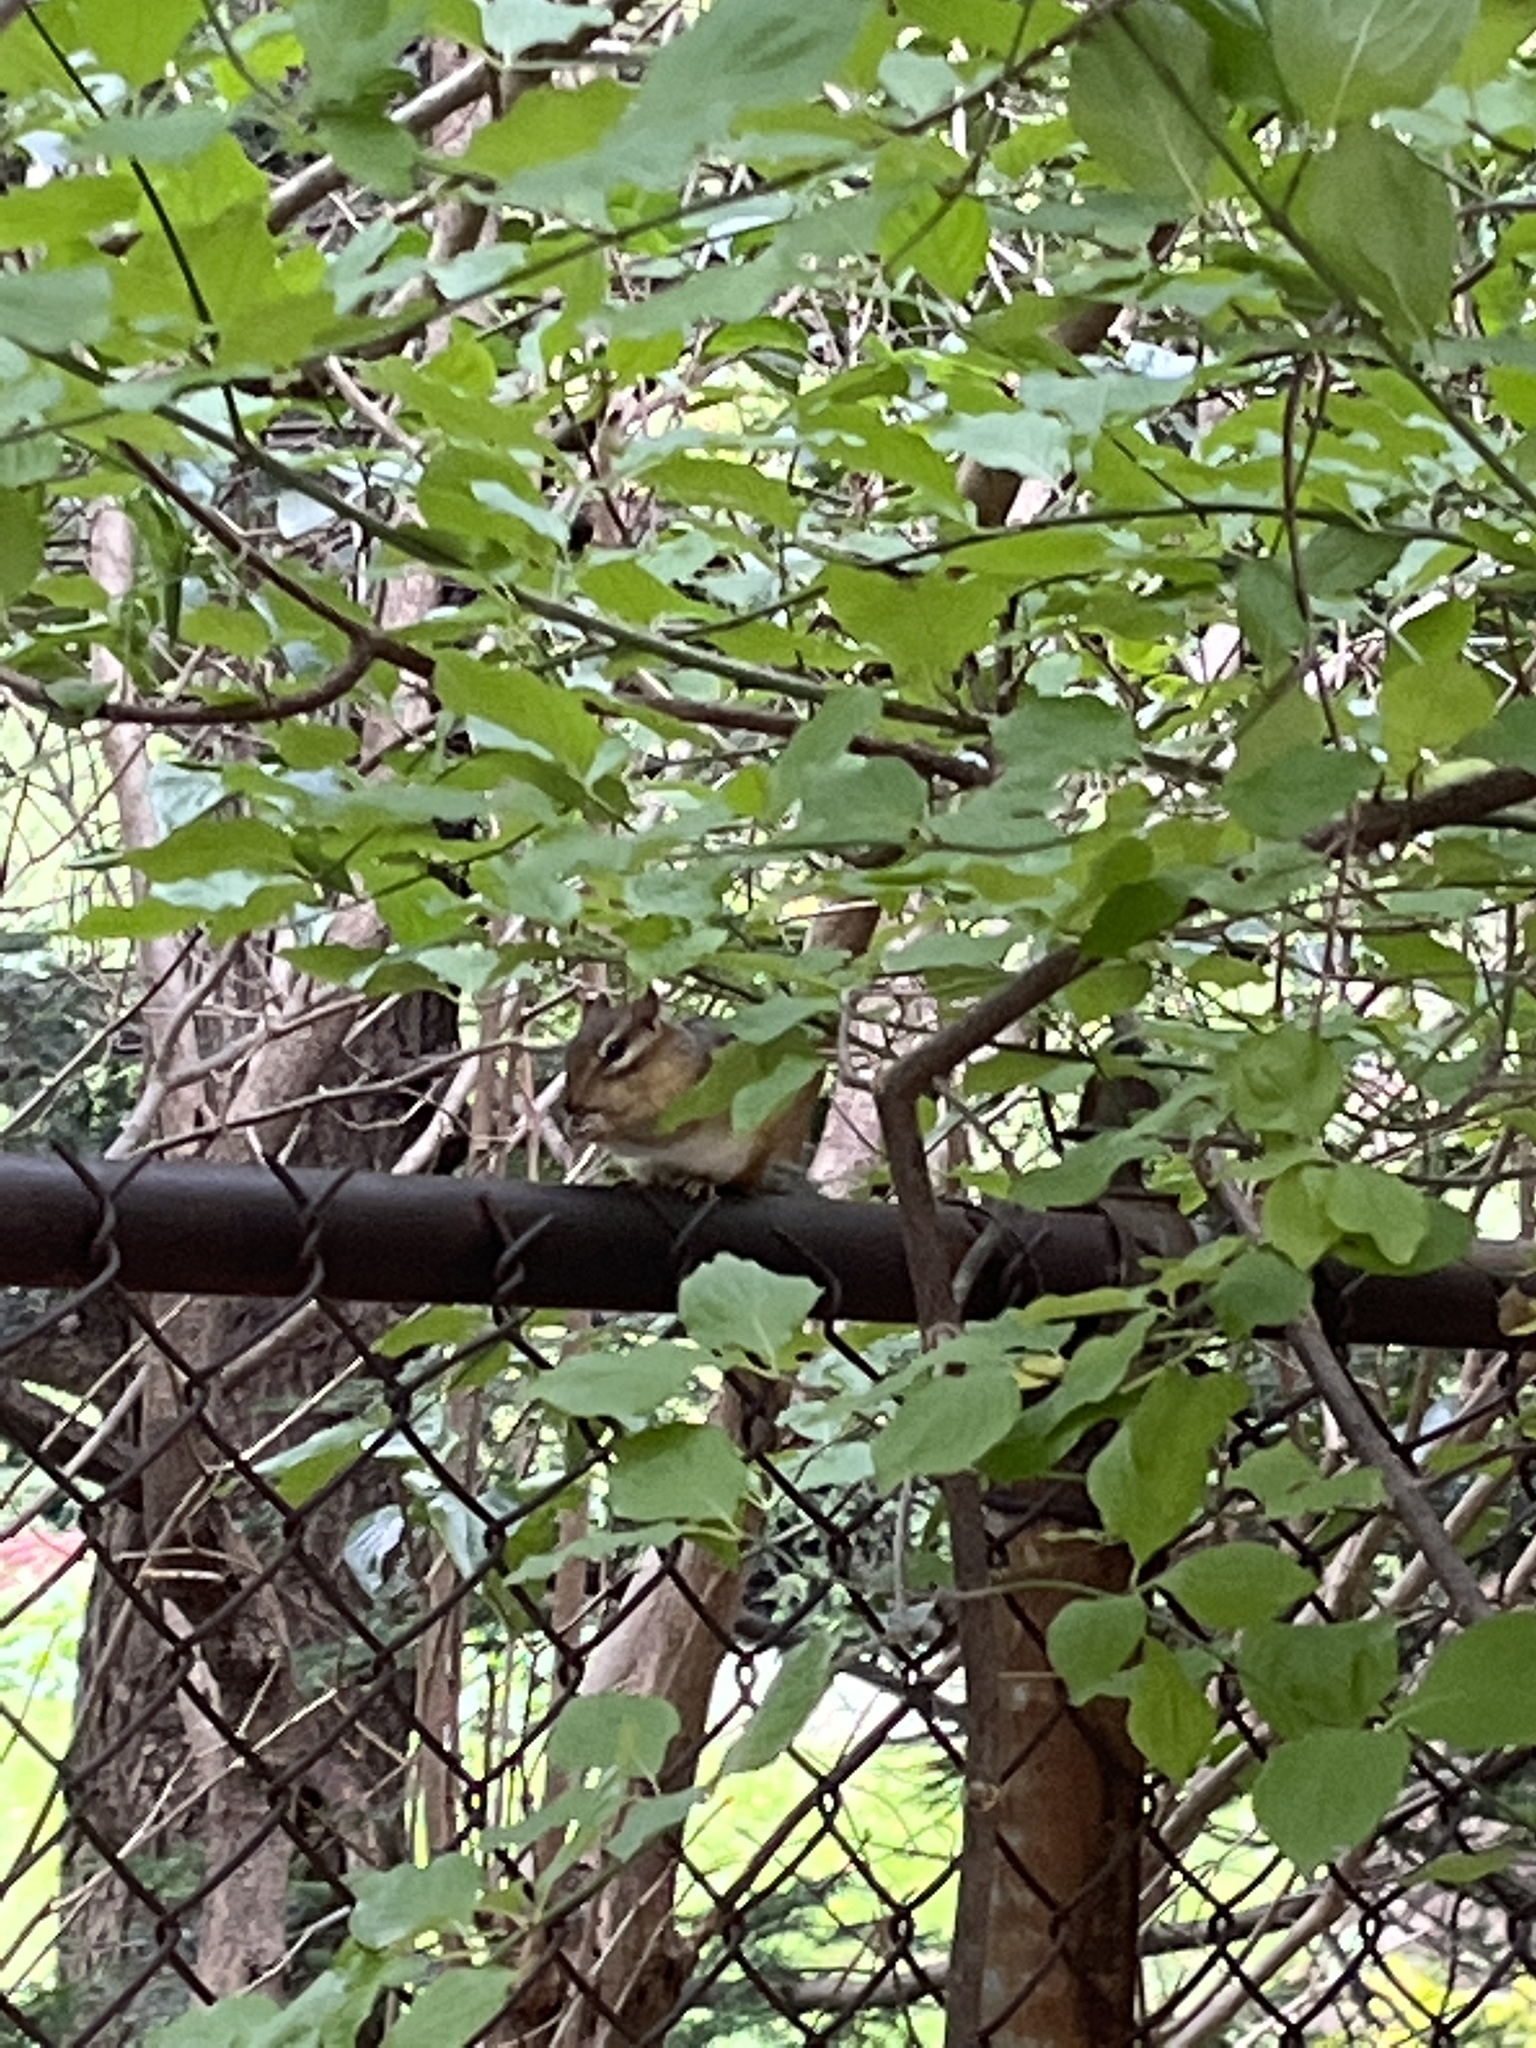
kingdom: Animalia
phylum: Chordata
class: Mammalia
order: Rodentia
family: Sciuridae
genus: Tamias
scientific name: Tamias striatus
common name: Eastern chipmunk
